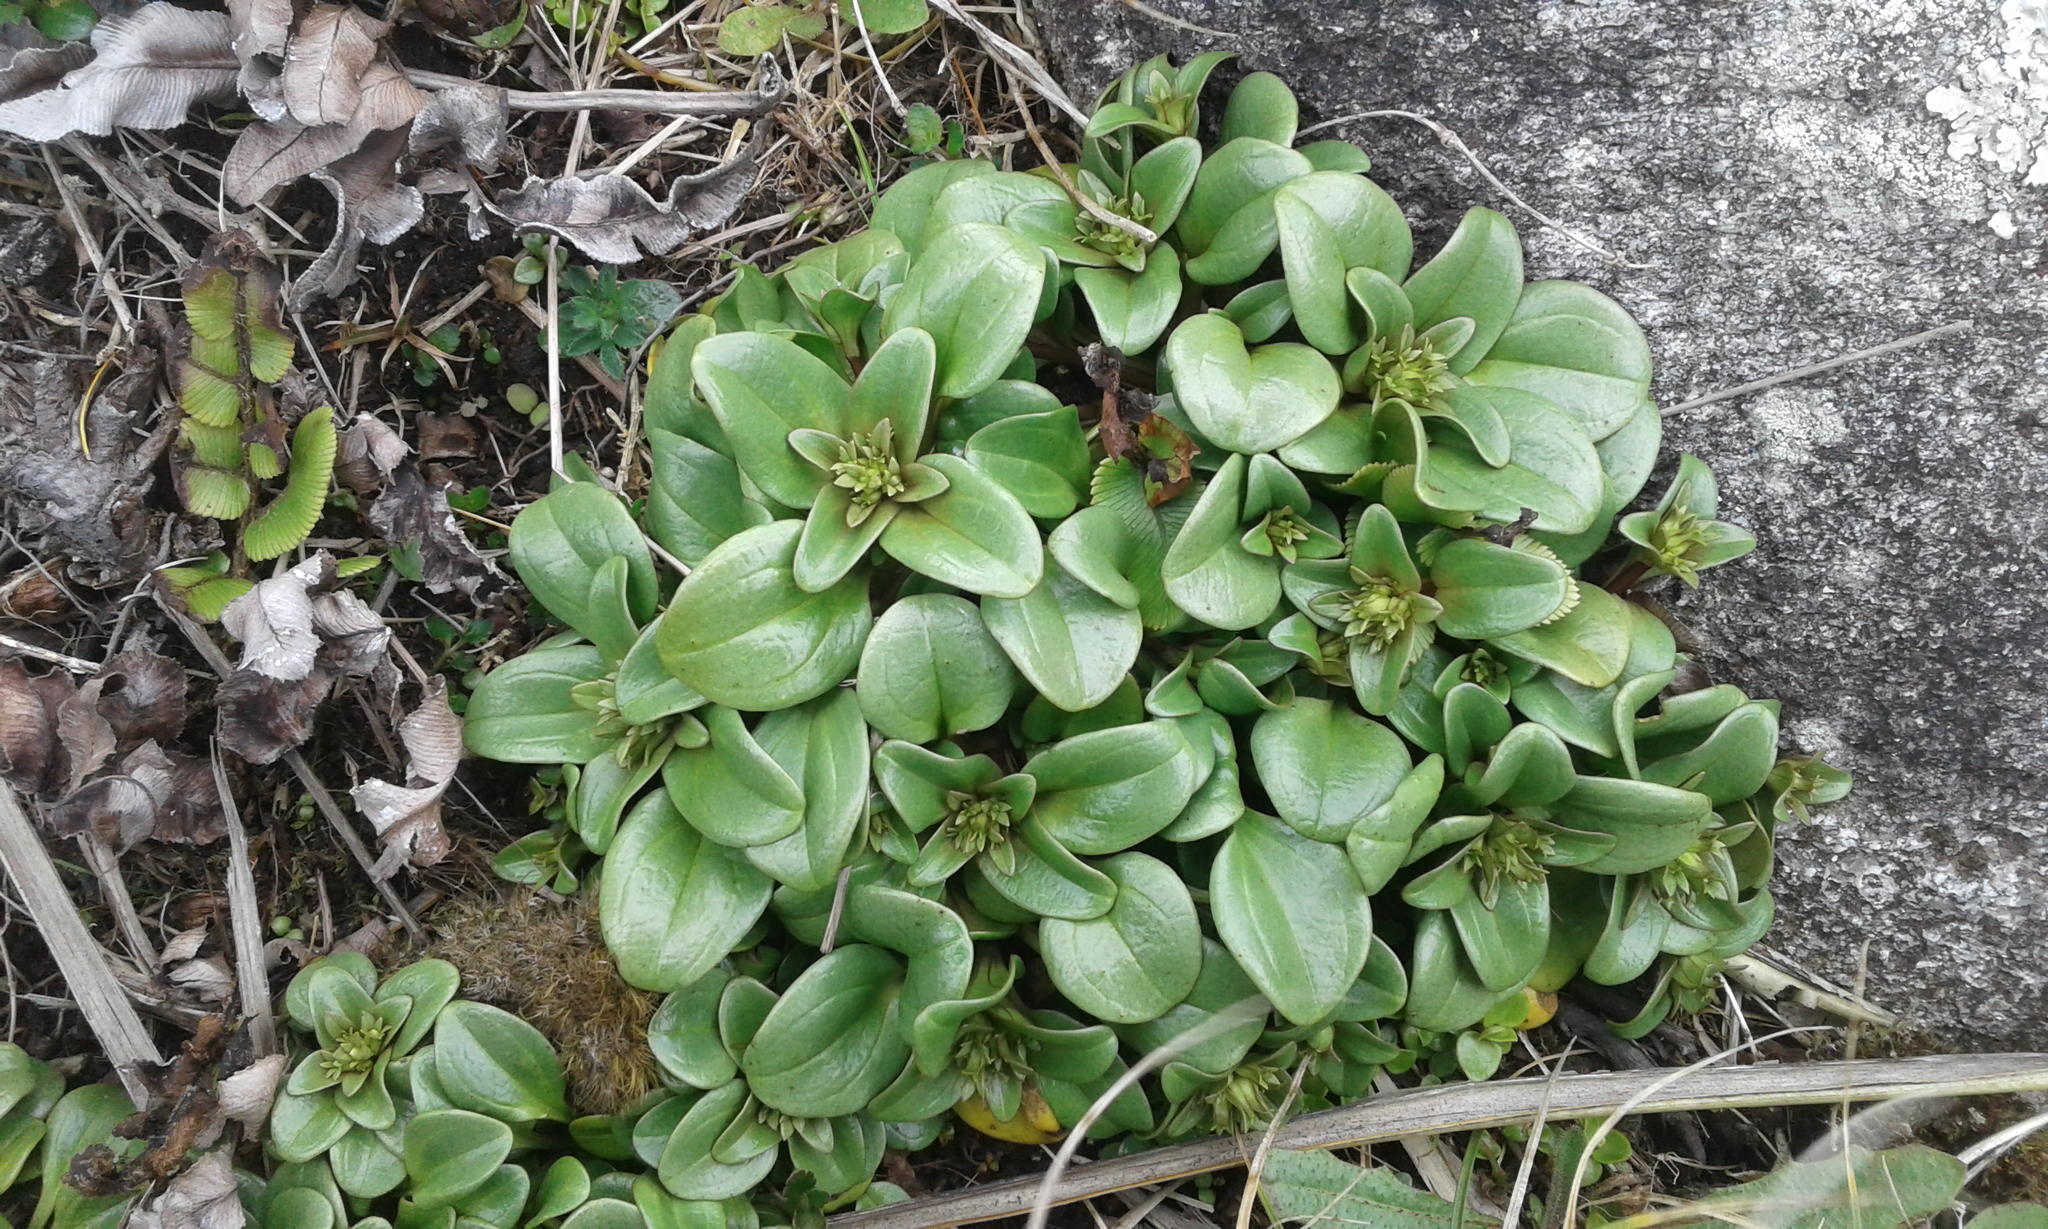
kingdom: Plantae
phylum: Tracheophyta
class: Magnoliopsida
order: Gentianales
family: Gentianaceae
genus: Gentianella
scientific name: Gentianella stevenii
